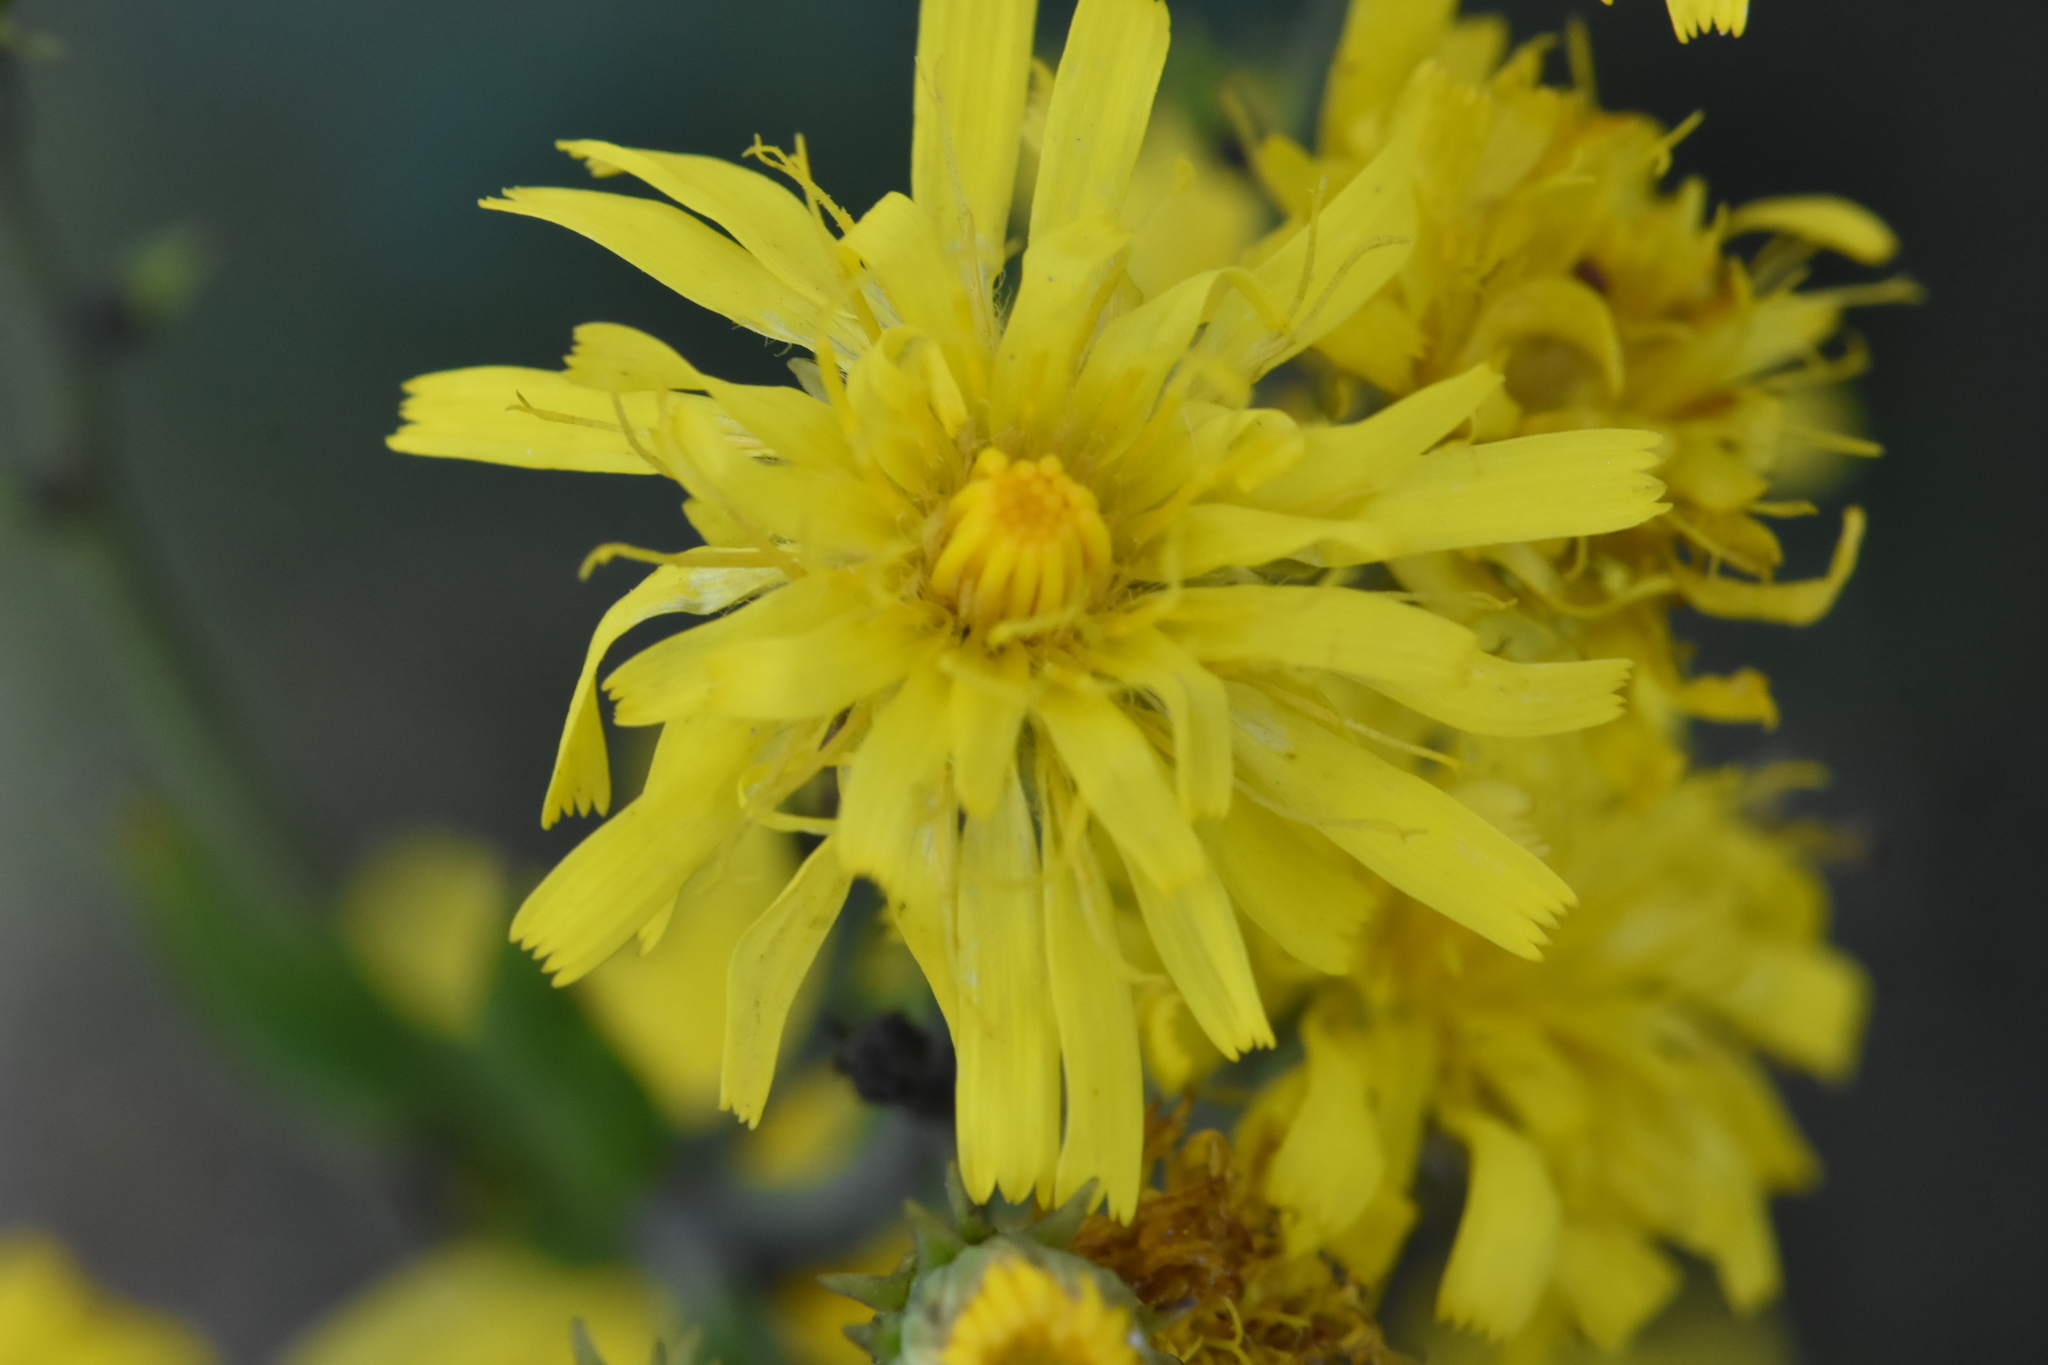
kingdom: Plantae
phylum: Tracheophyta
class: Magnoliopsida
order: Asterales
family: Asteraceae
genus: Hieracium
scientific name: Hieracium umbellatum
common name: Northern hawkweed
